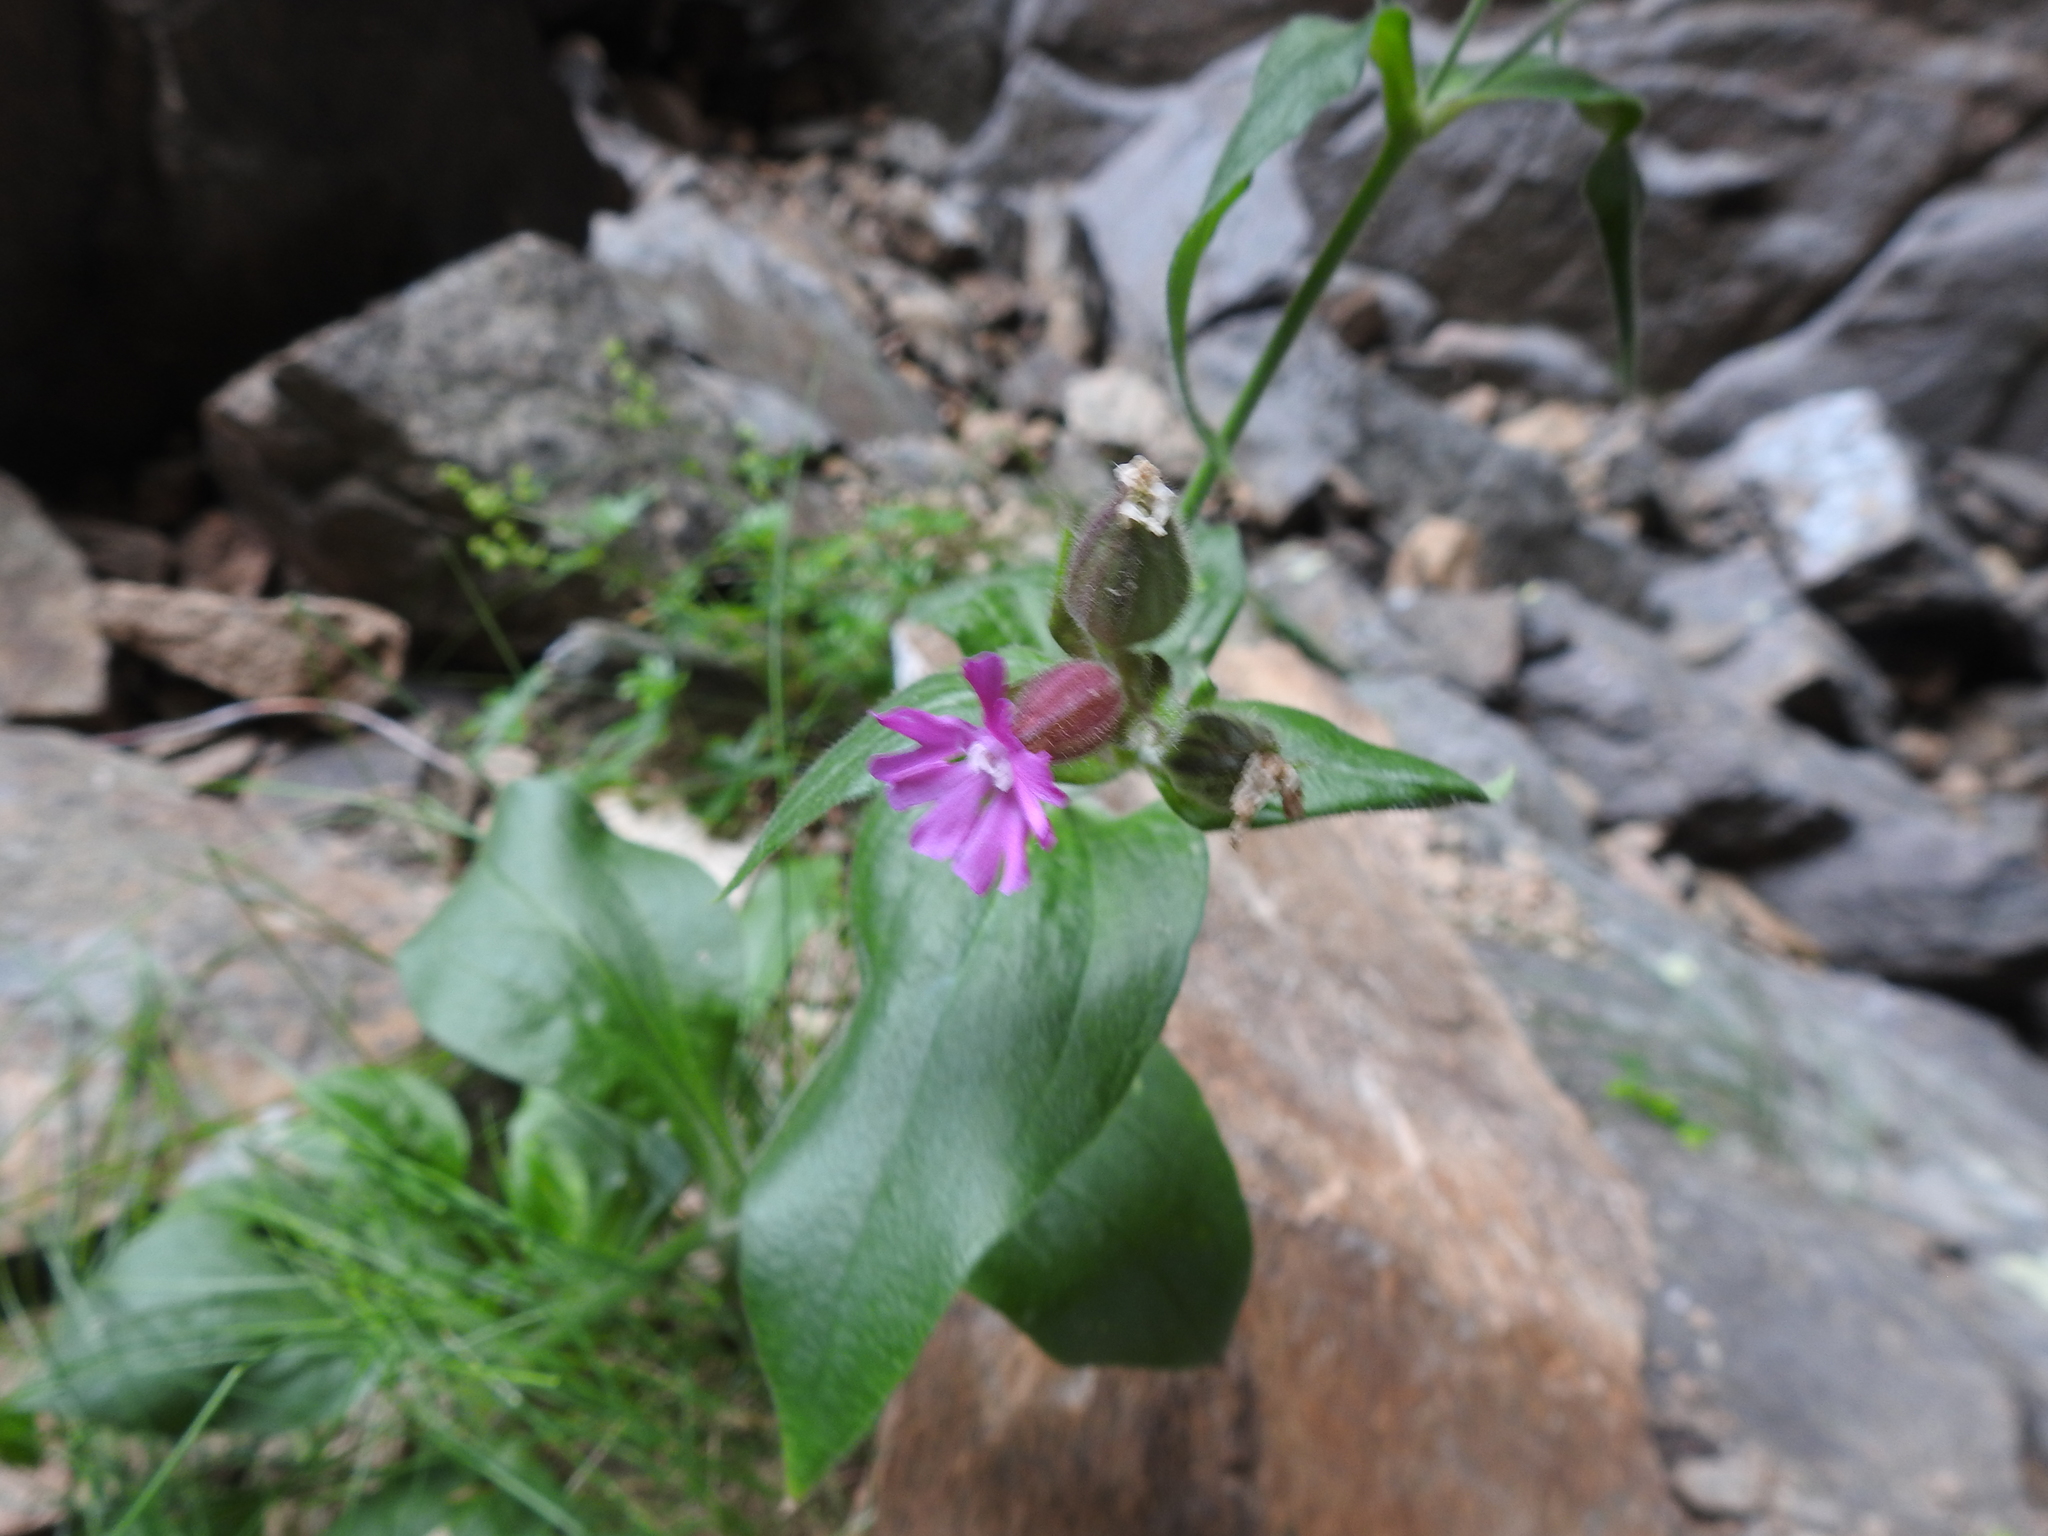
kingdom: Plantae
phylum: Tracheophyta
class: Magnoliopsida
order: Caryophyllales
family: Caryophyllaceae
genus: Silene
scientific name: Silene dioica
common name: Red campion
